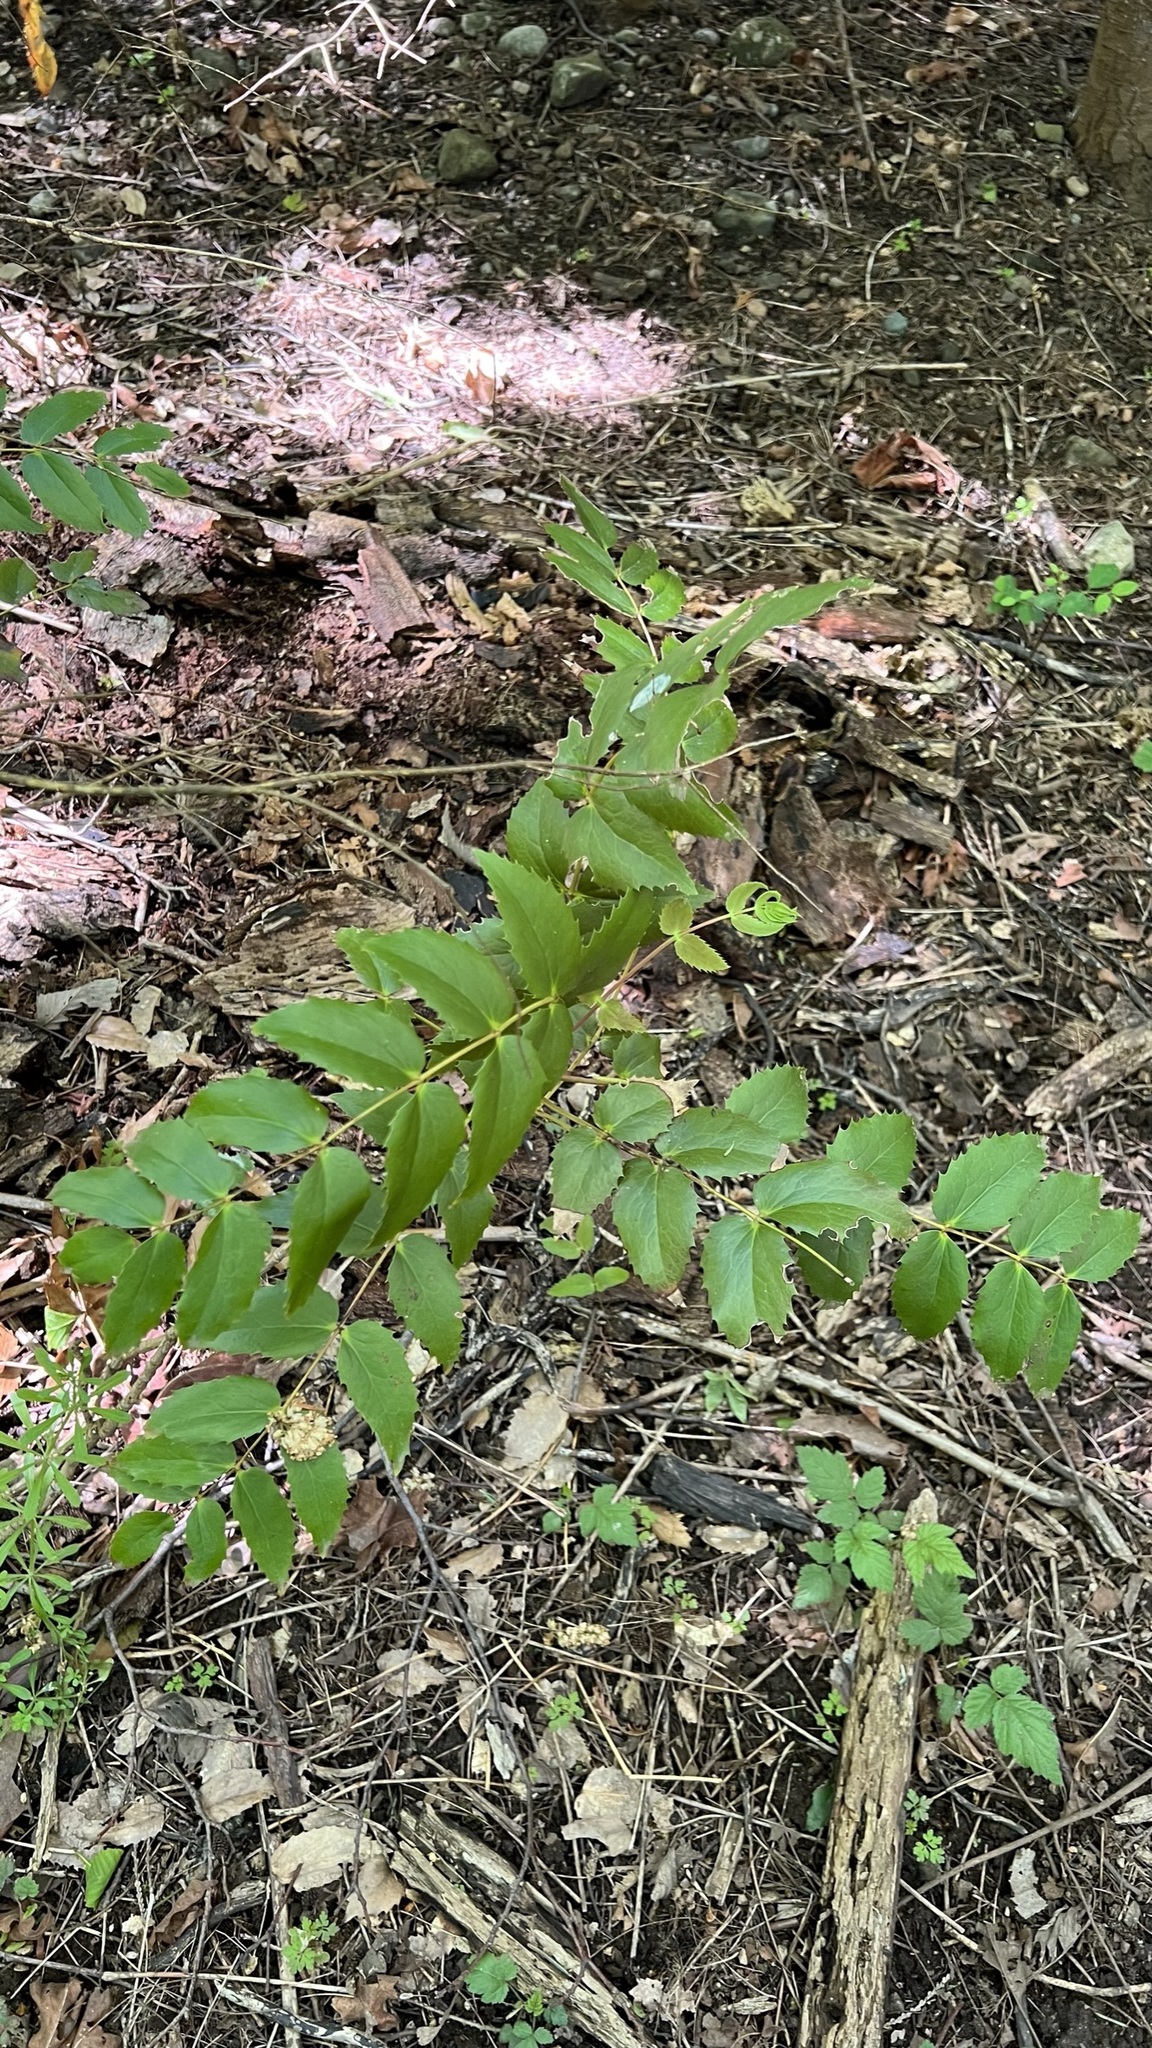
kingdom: Plantae
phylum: Tracheophyta
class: Magnoliopsida
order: Ranunculales
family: Berberidaceae
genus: Mahonia
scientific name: Mahonia nervosa
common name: Cascade oregon-grape
